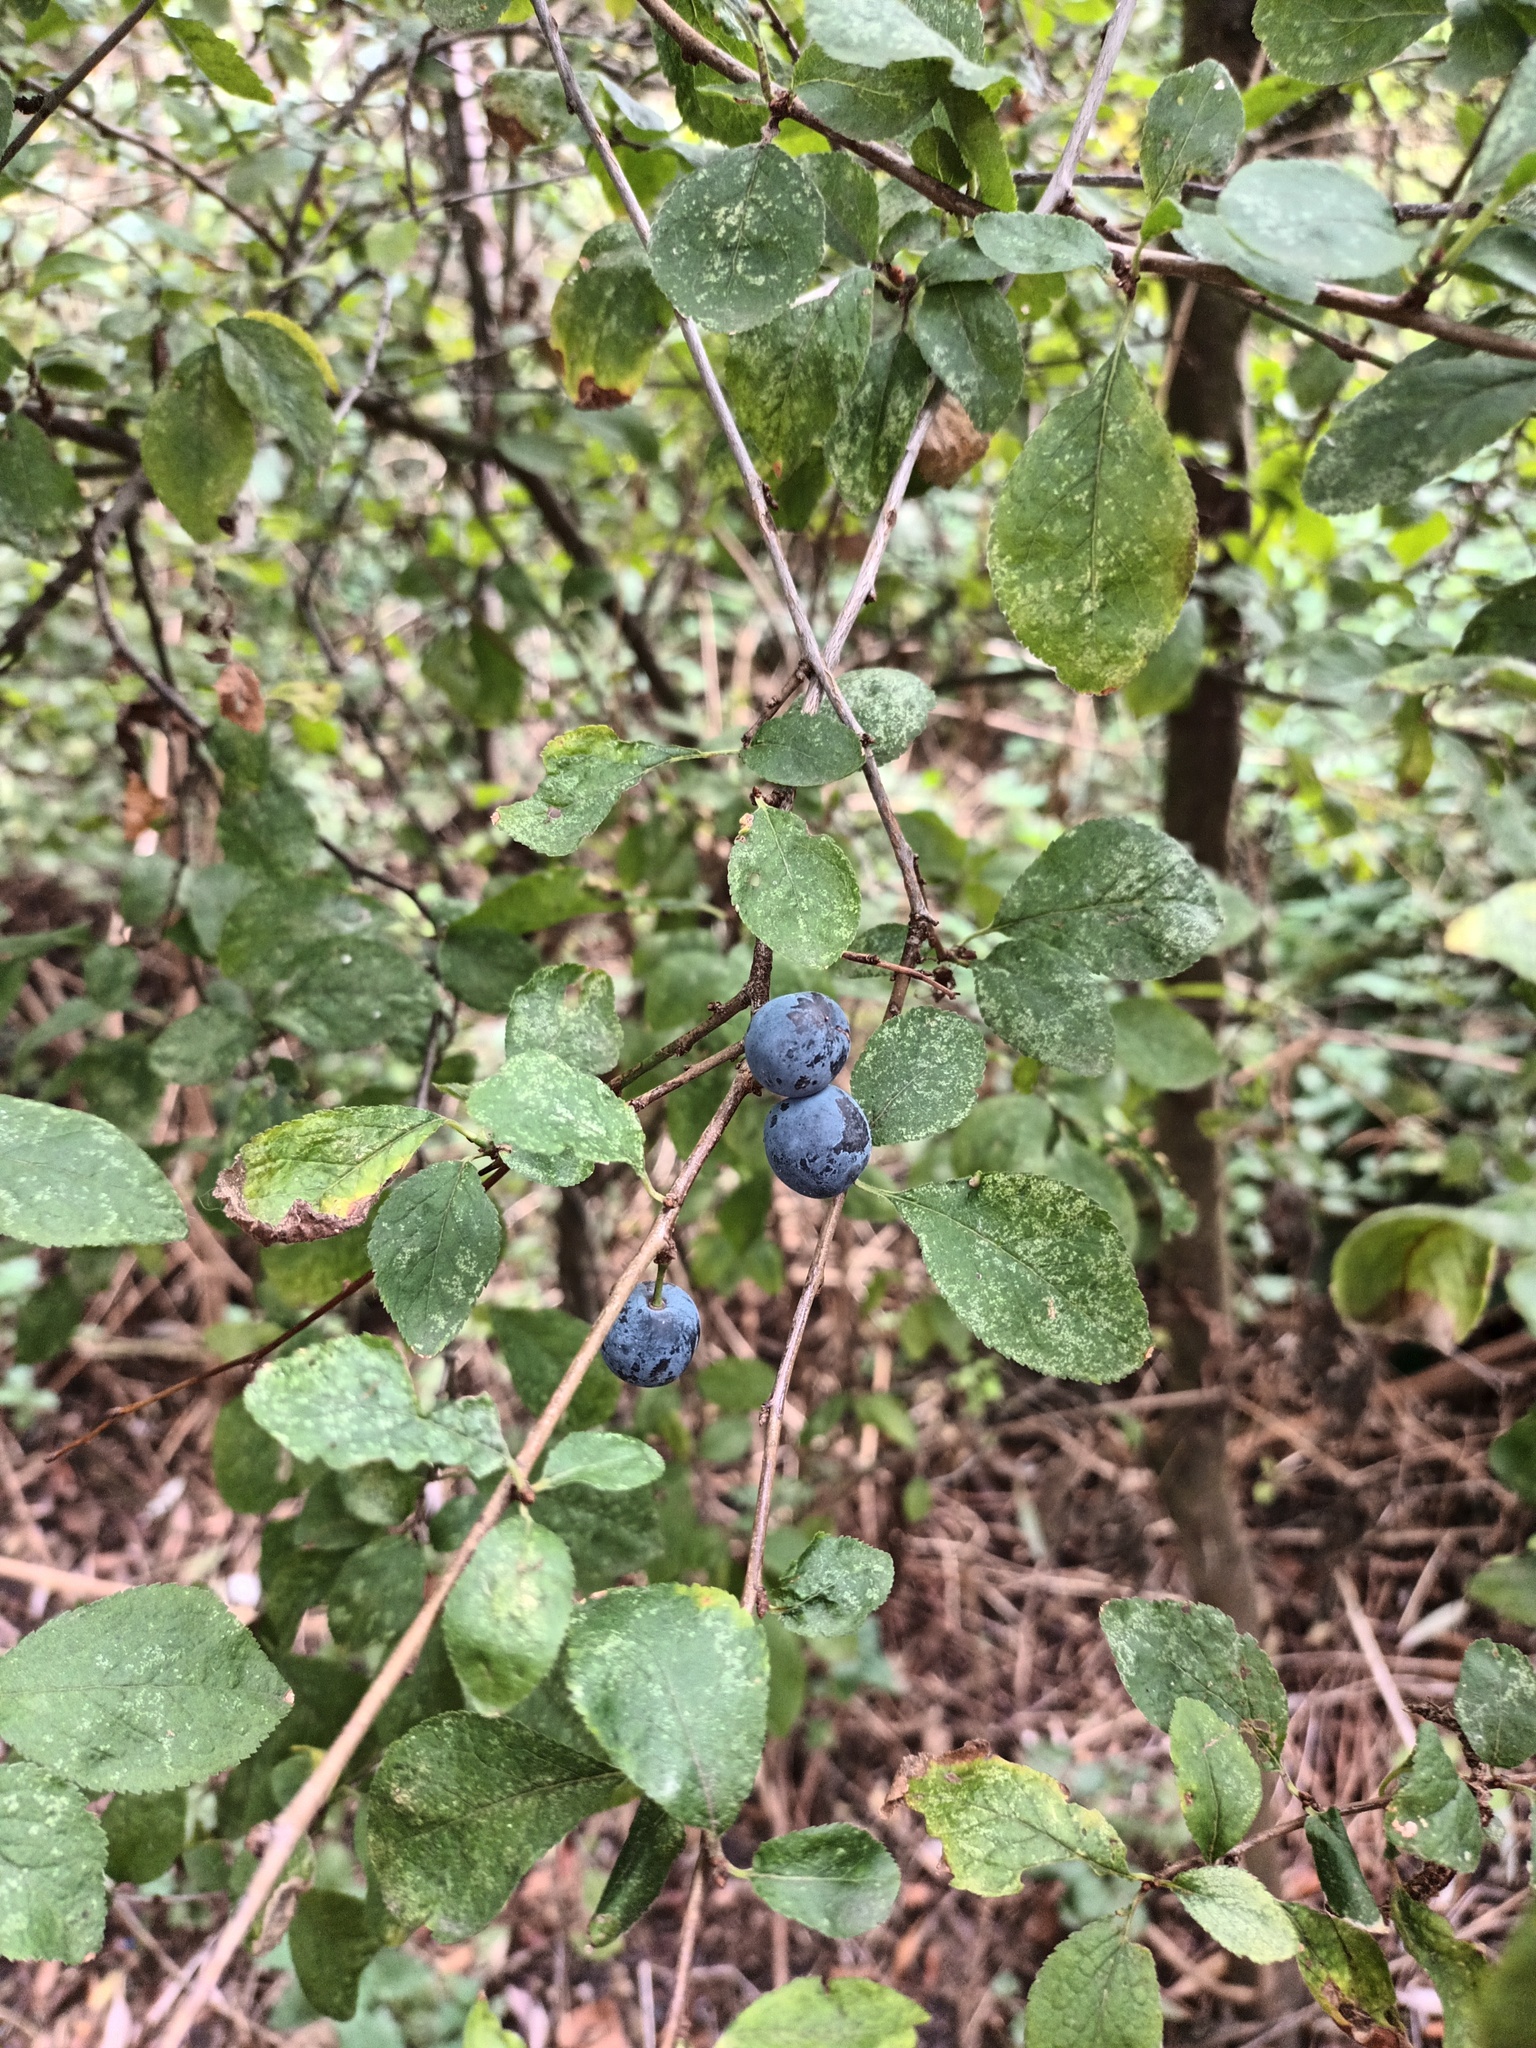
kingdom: Plantae
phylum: Tracheophyta
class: Magnoliopsida
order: Rosales
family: Rosaceae
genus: Prunus
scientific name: Prunus spinosa
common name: Blackthorn
